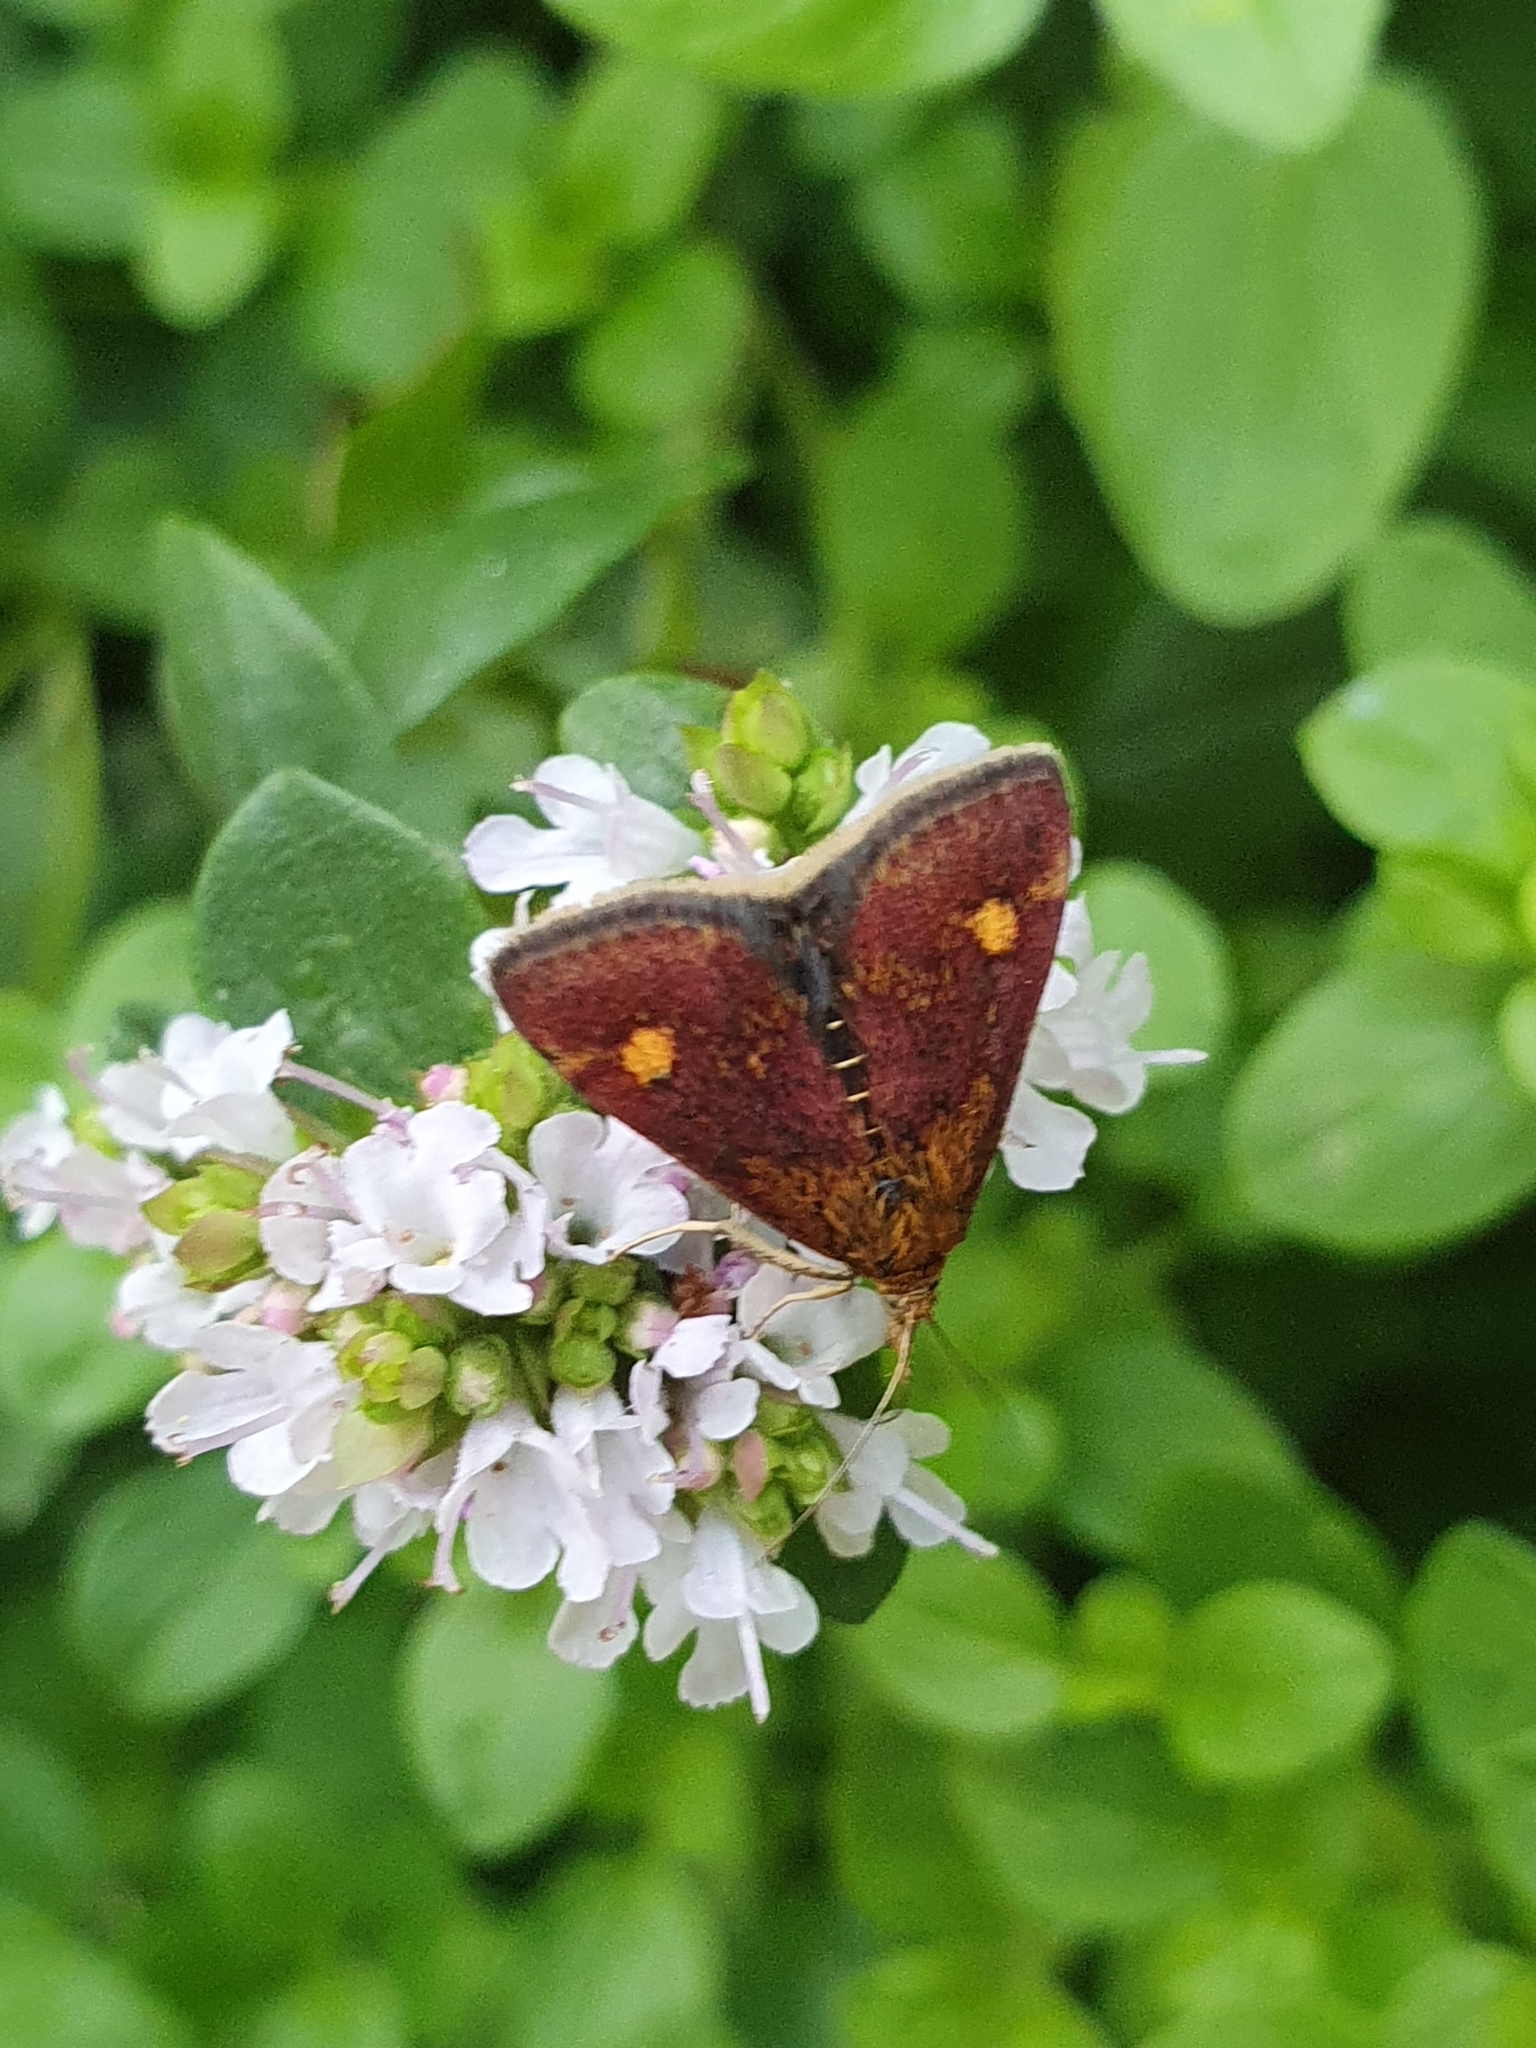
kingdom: Animalia
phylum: Arthropoda
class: Insecta
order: Lepidoptera
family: Crambidae
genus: Pyrausta
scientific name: Pyrausta aurata
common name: Small purple & gold
